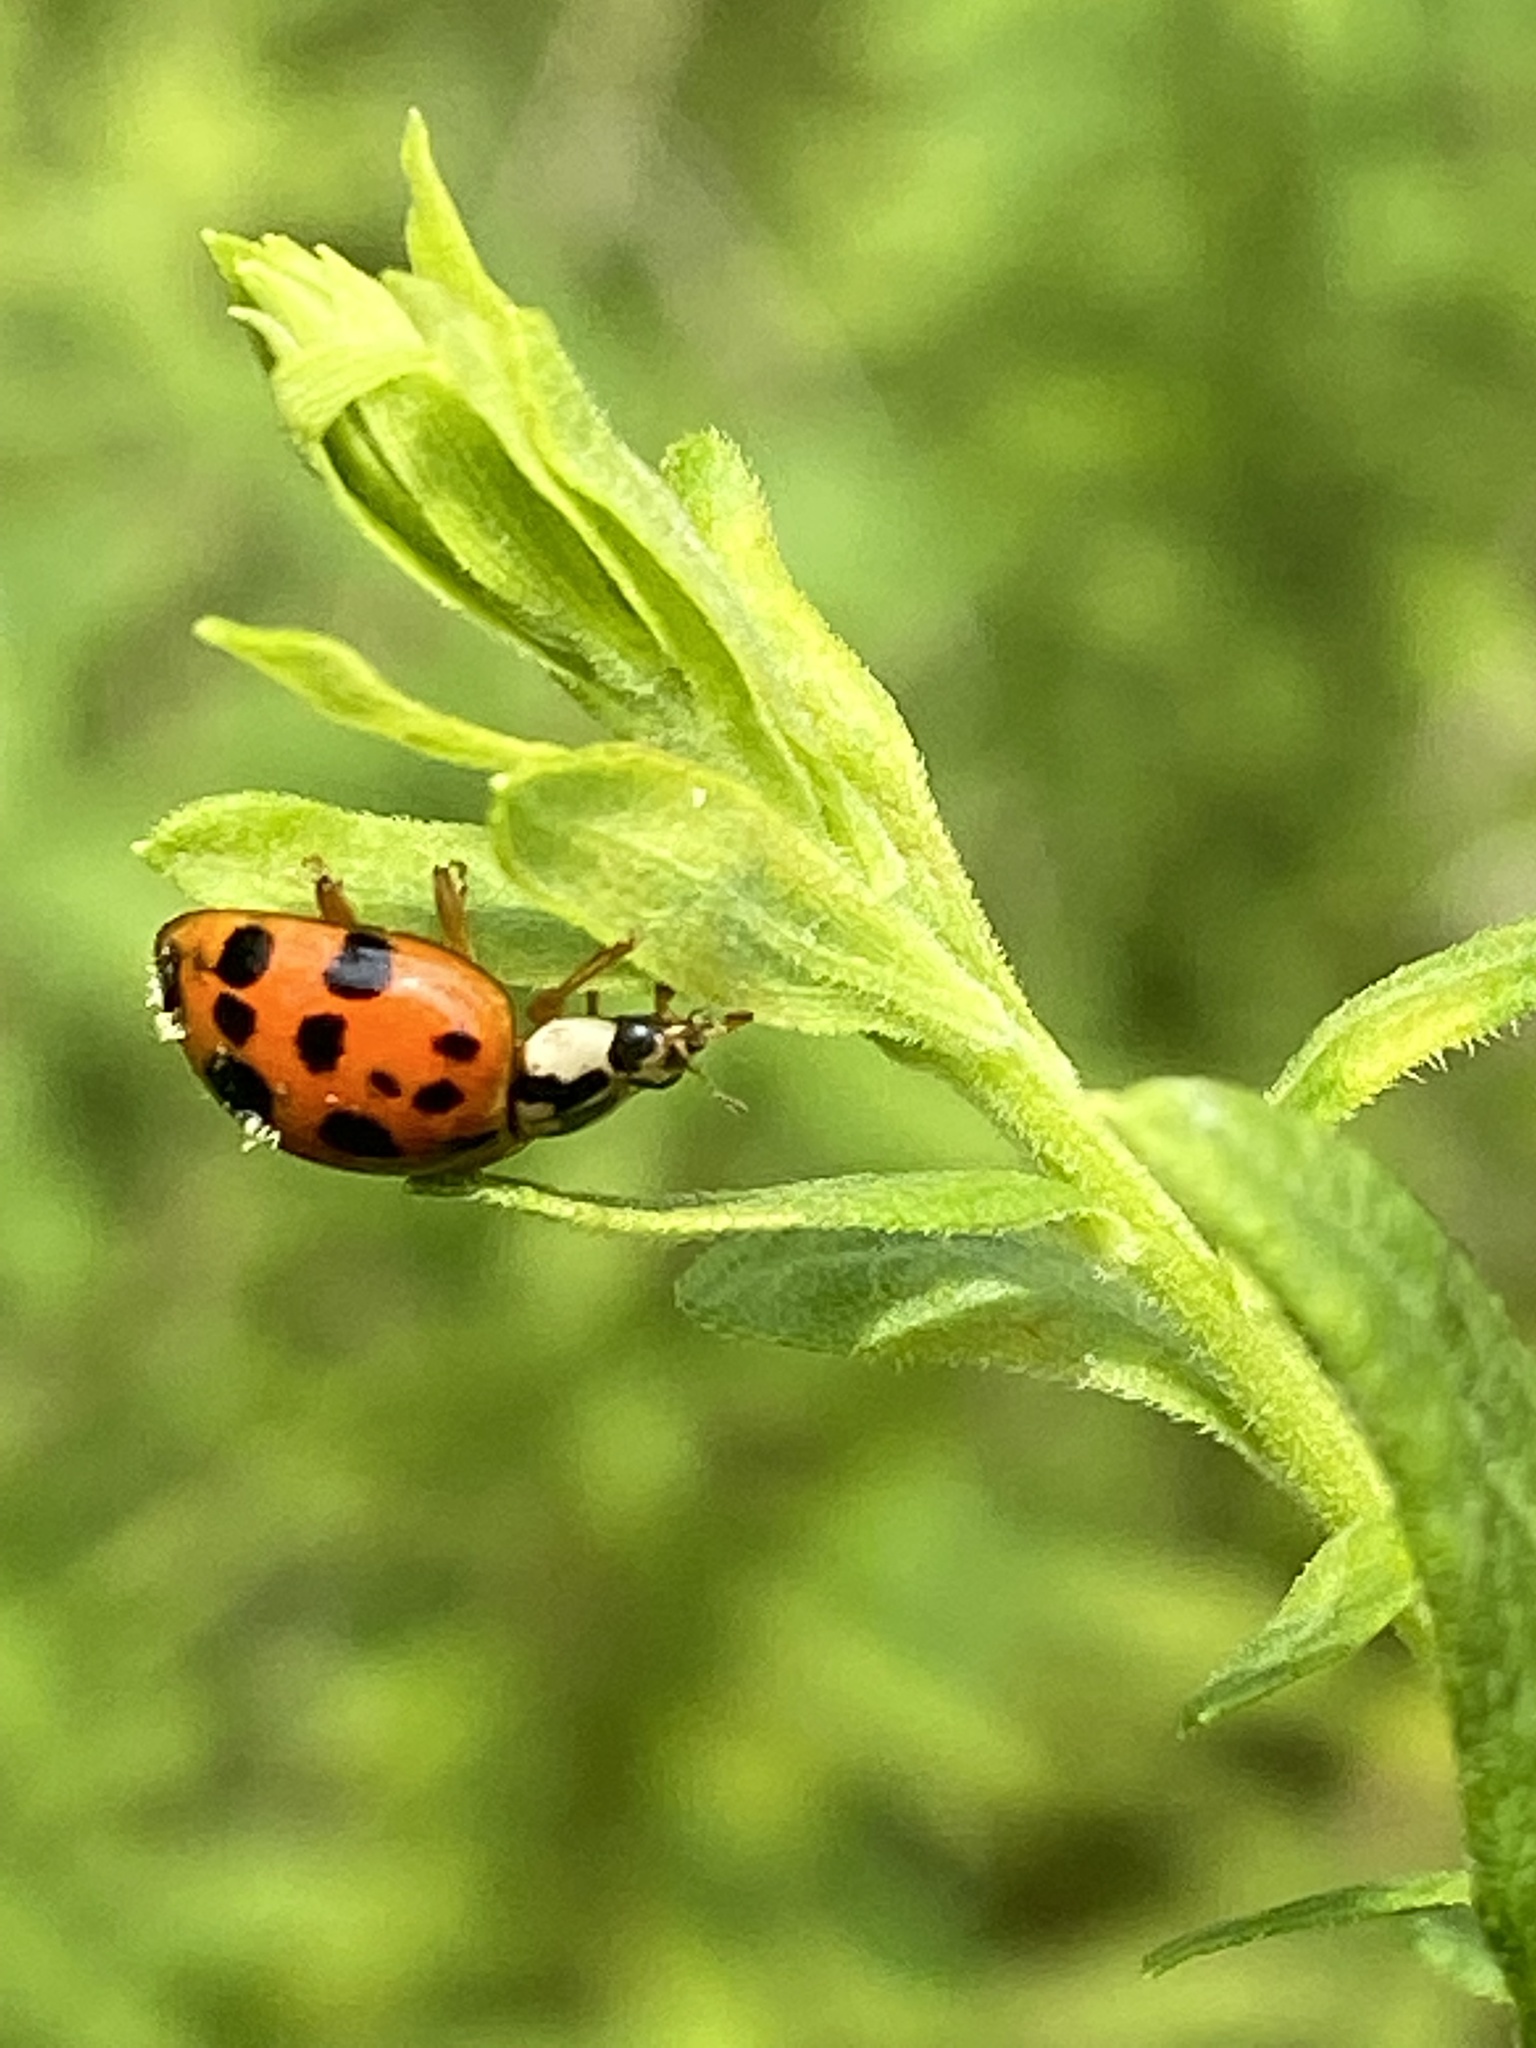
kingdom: Animalia
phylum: Arthropoda
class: Insecta
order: Coleoptera
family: Coccinellidae
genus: Harmonia
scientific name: Harmonia axyridis
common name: Harlequin ladybird
